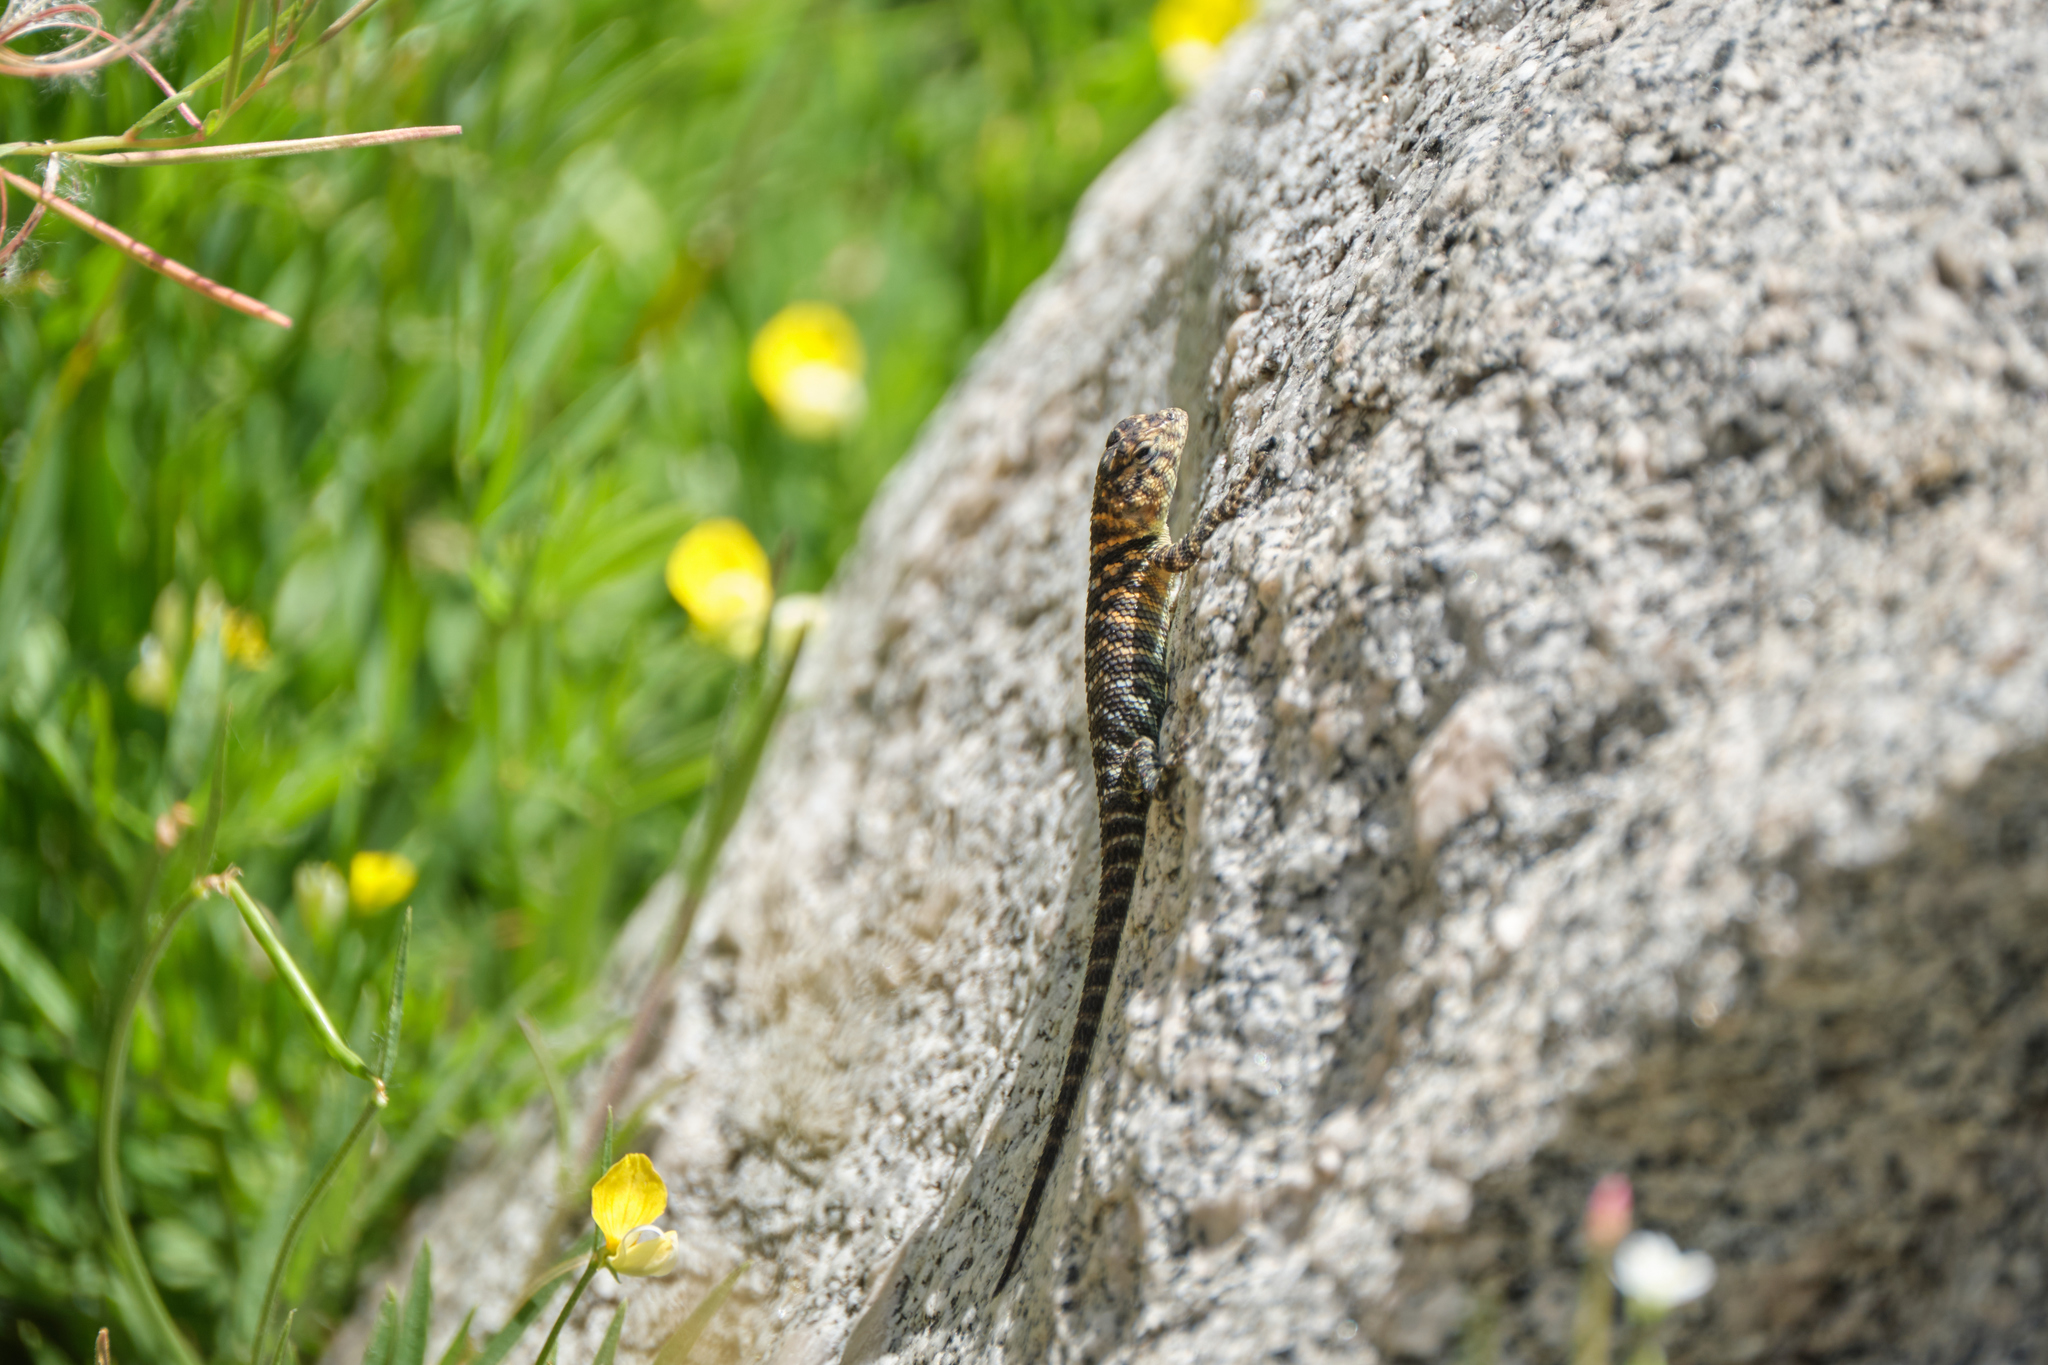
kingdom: Animalia
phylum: Chordata
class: Squamata
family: Phrynosomatidae
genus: Sceloporus
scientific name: Sceloporus orcutti
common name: Granite spiny lizard
